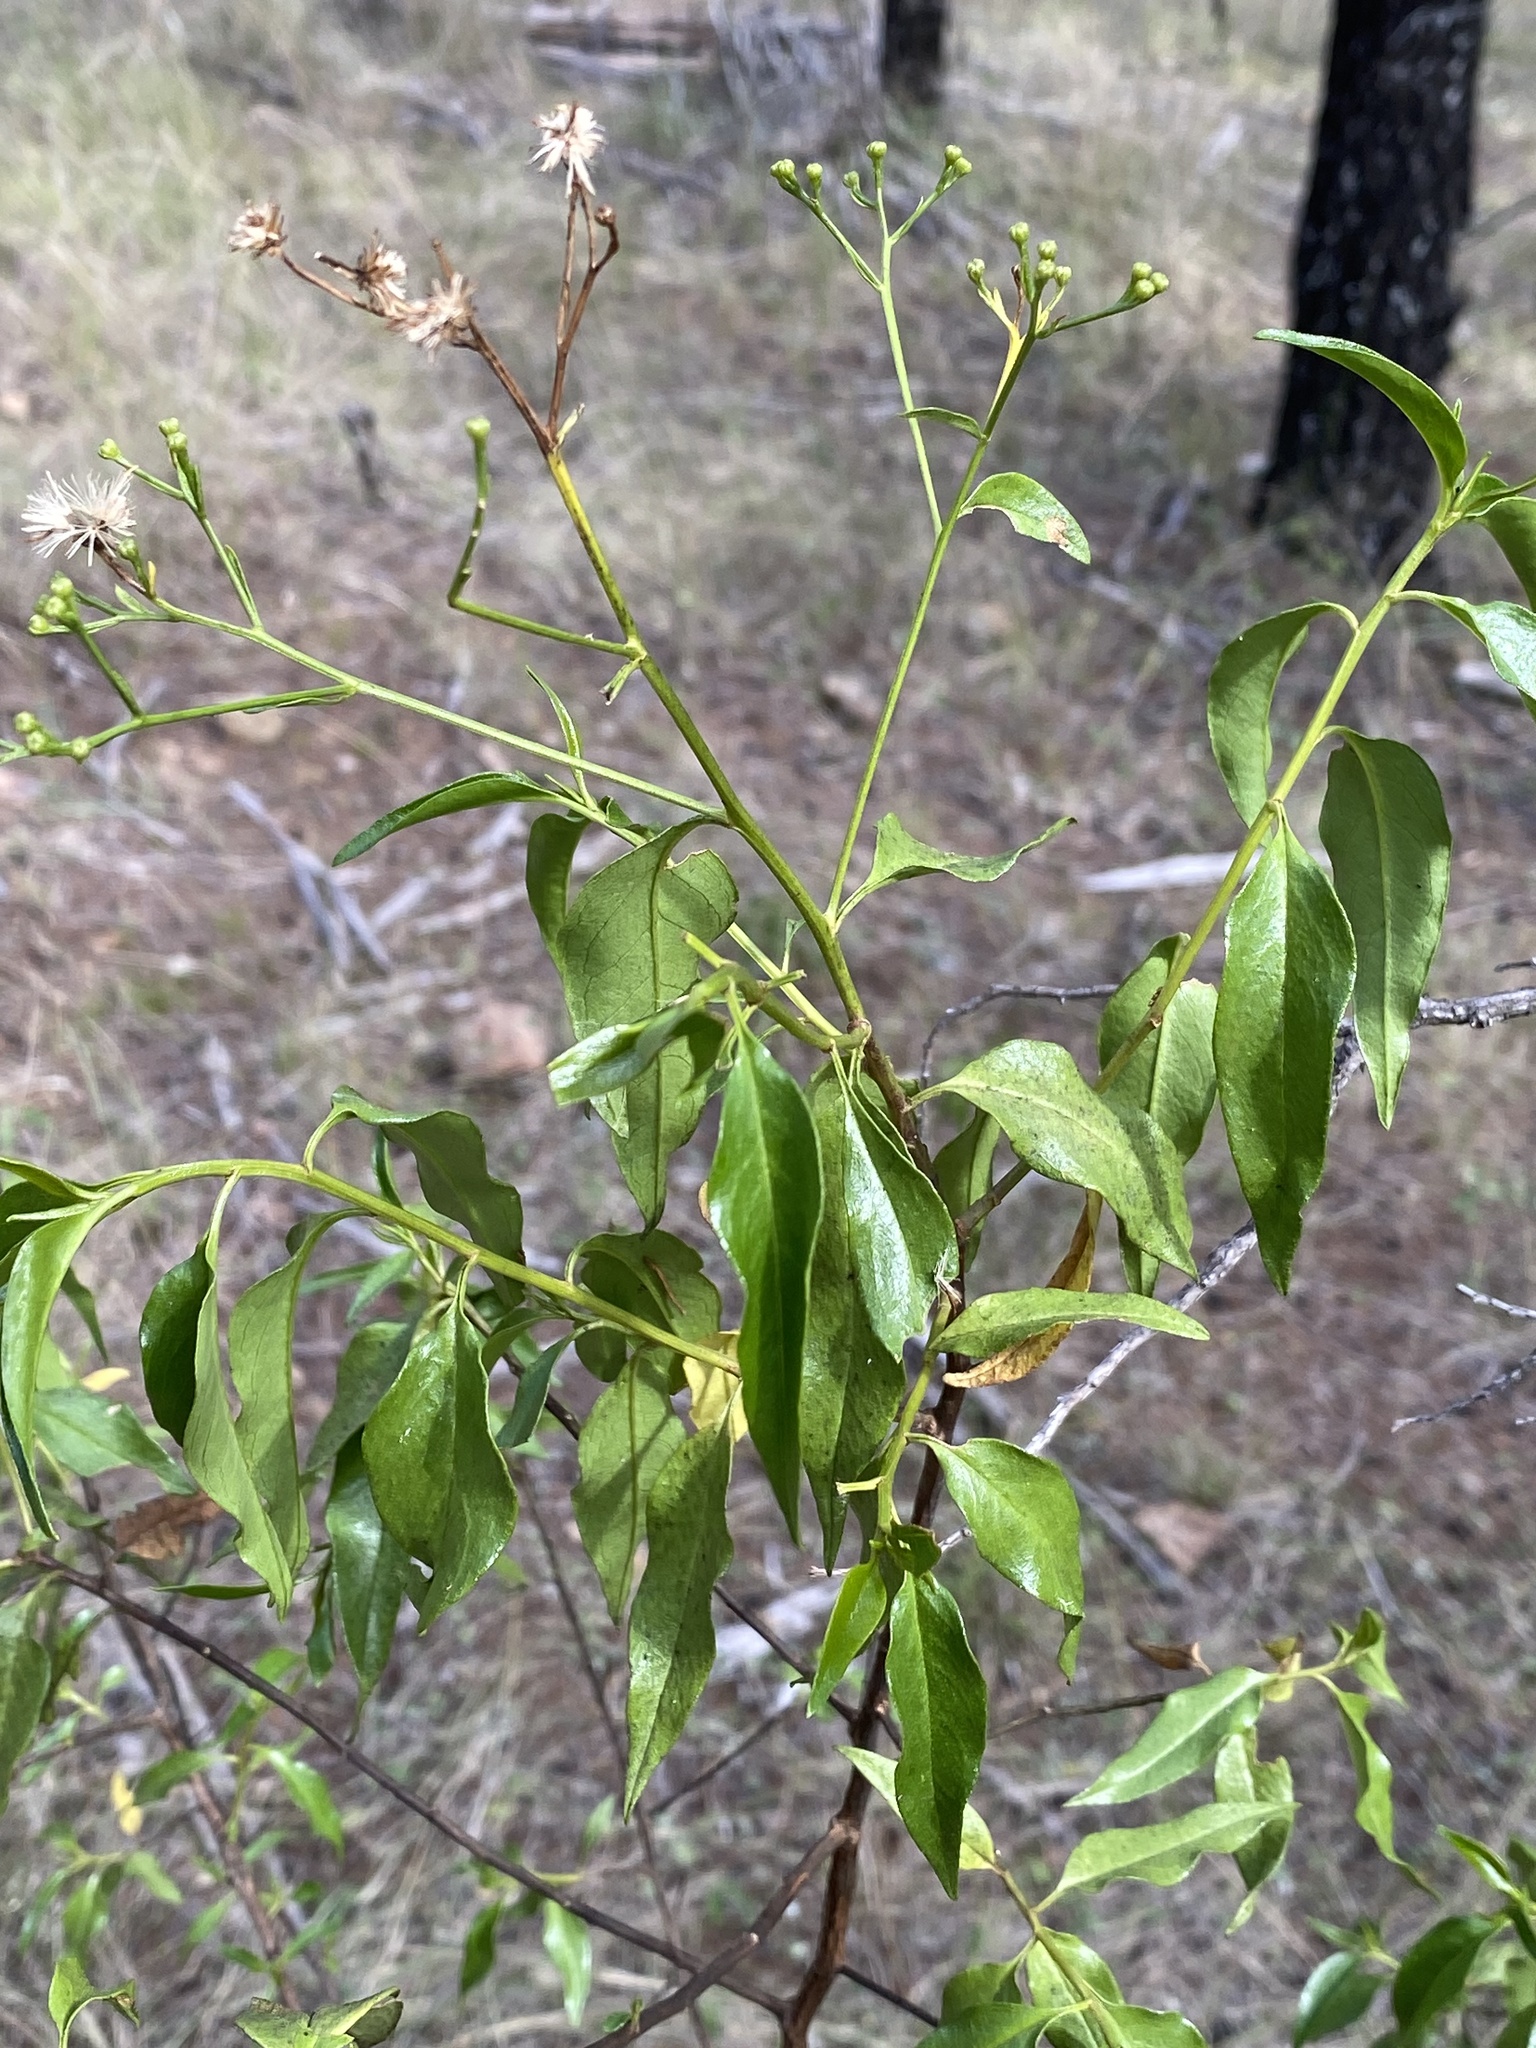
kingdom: Plantae
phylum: Tracheophyta
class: Magnoliopsida
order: Asterales
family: Asteraceae
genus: Phaseolaster
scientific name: Phaseolaster fulgens
